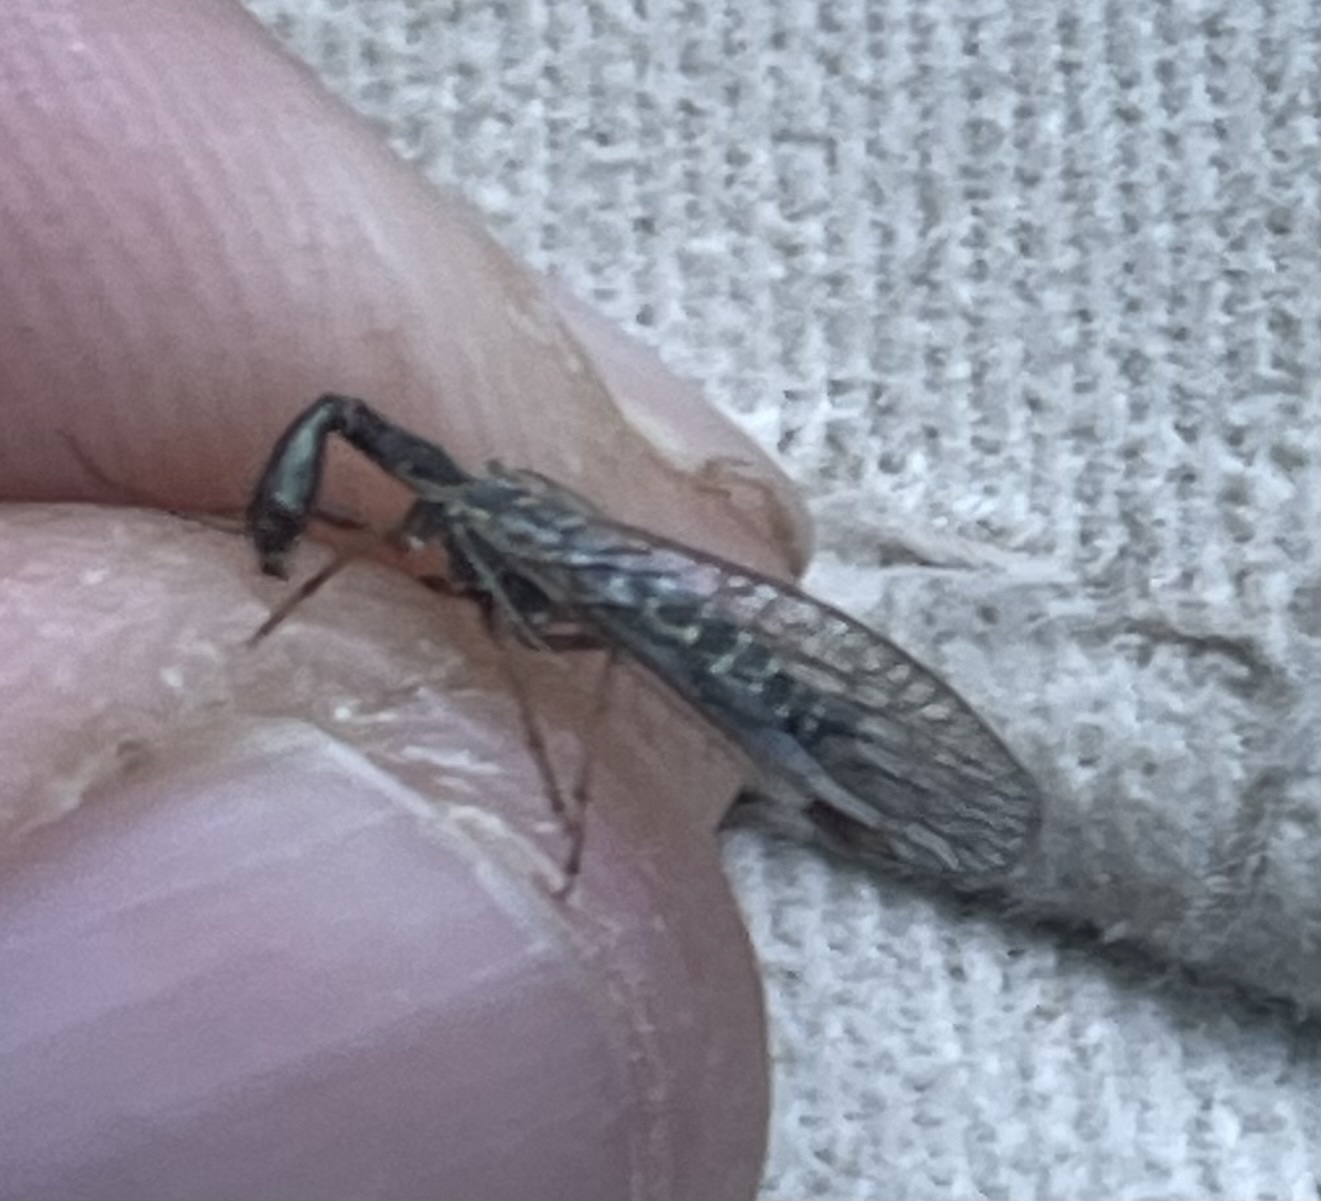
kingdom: Animalia
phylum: Arthropoda
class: Insecta
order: Raphidioptera
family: Raphidiidae
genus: Agulla
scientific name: Agulla bicolor
